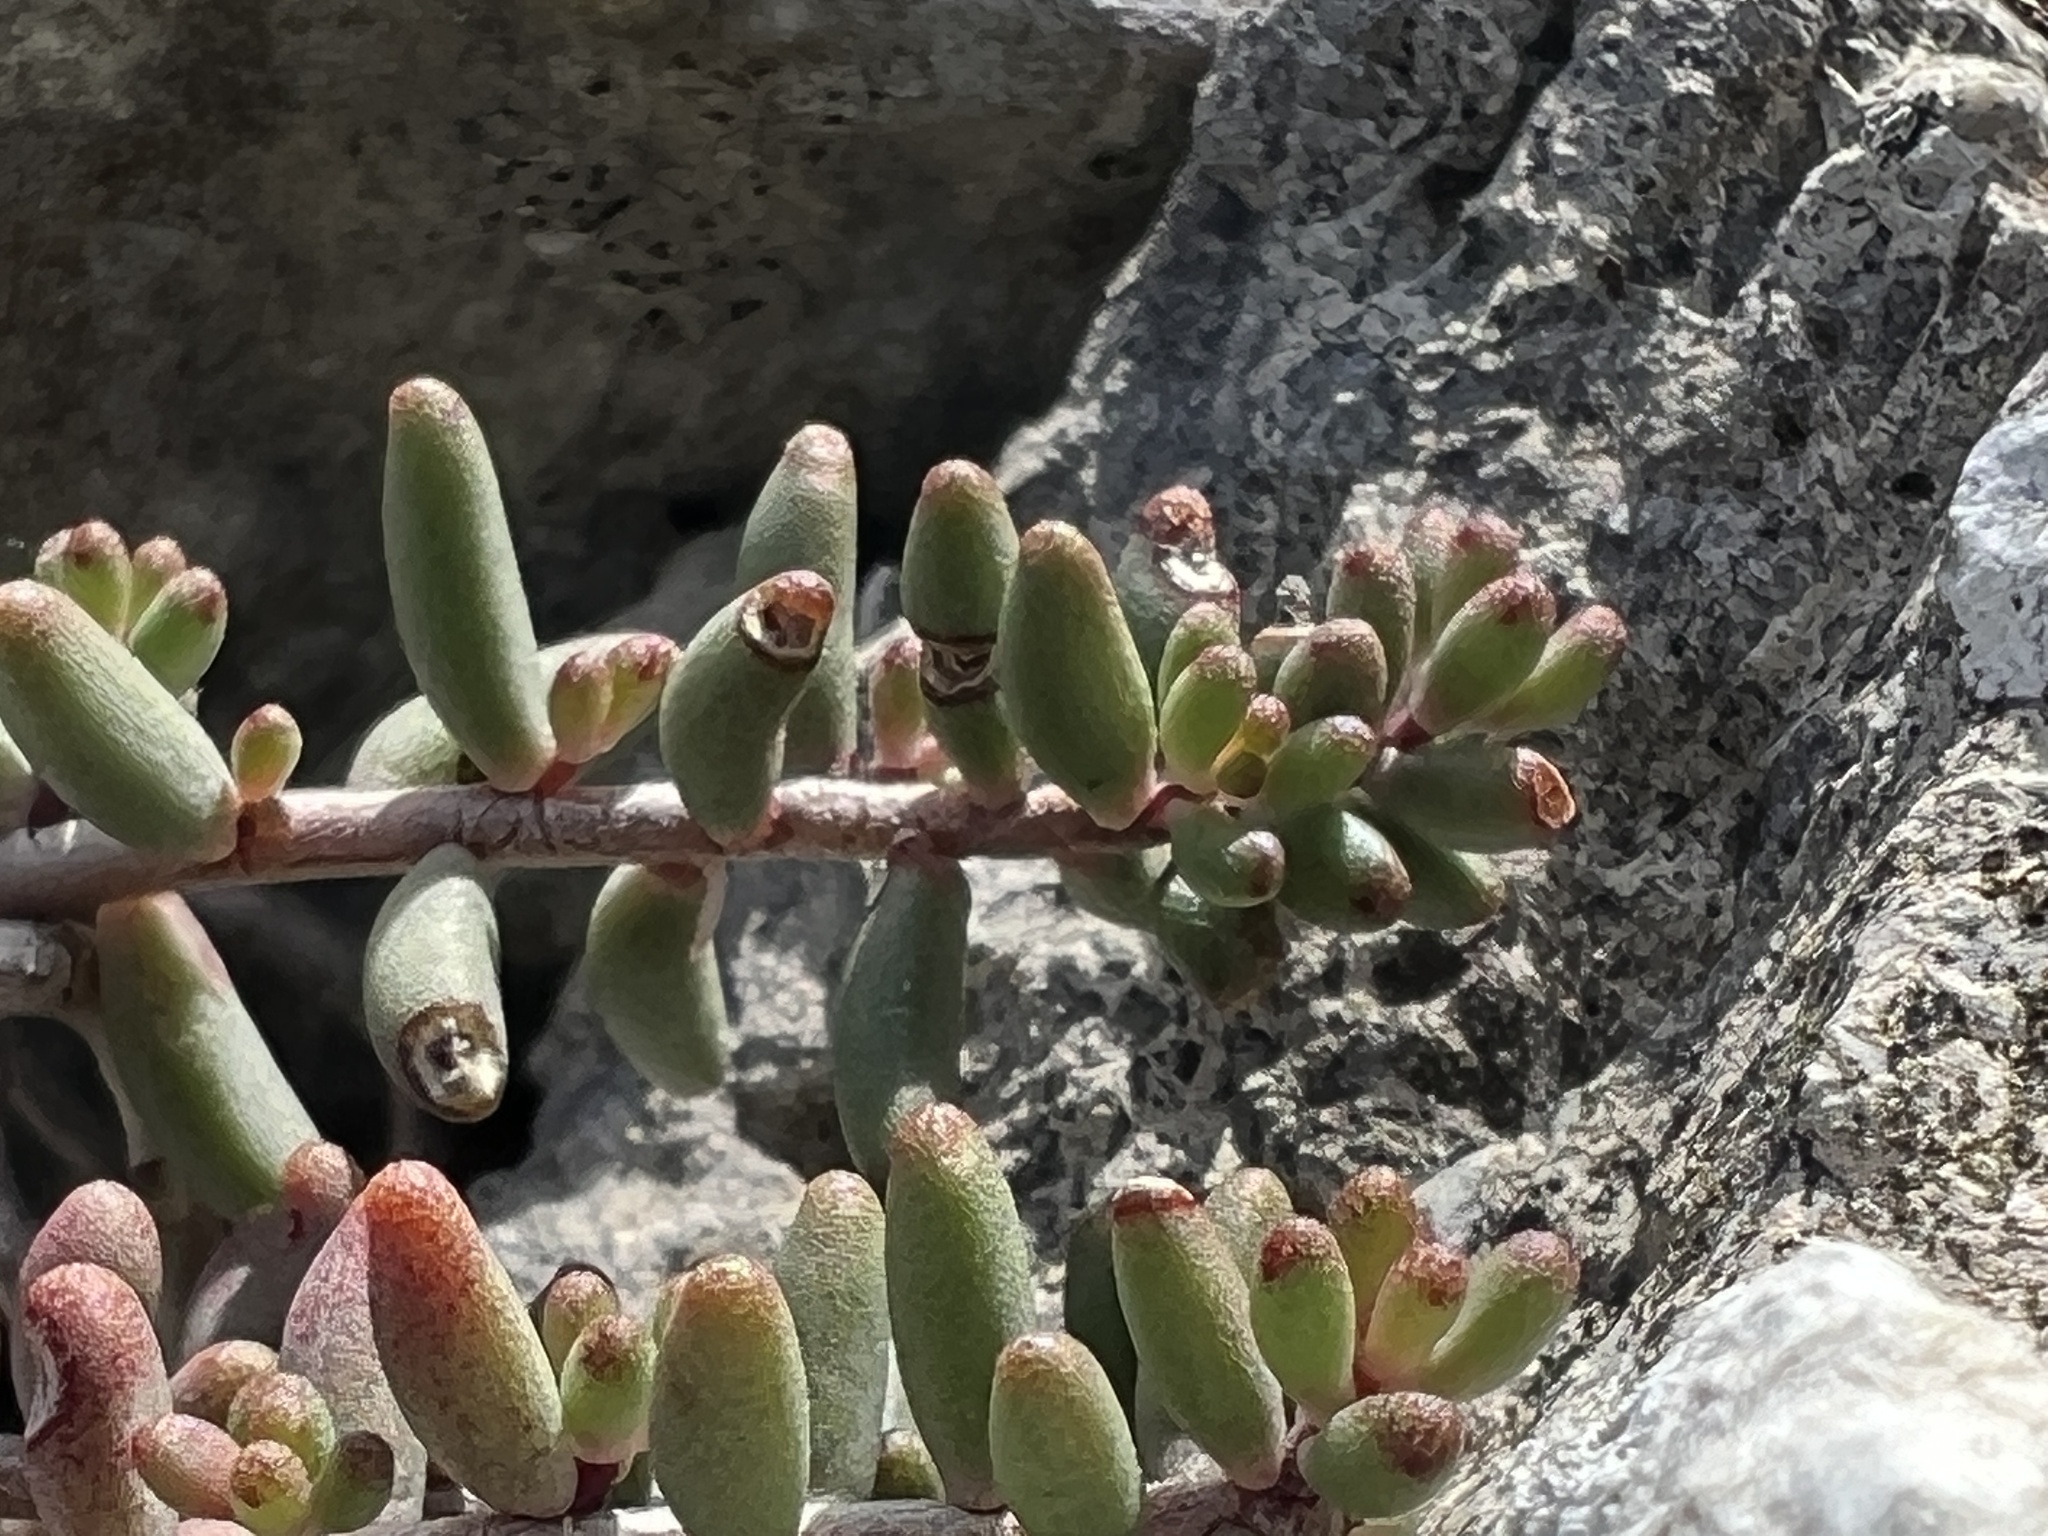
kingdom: Plantae
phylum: Tracheophyta
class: Magnoliopsida
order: Saxifragales
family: Crassulaceae
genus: Sedum
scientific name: Sedum album
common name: White stonecrop
